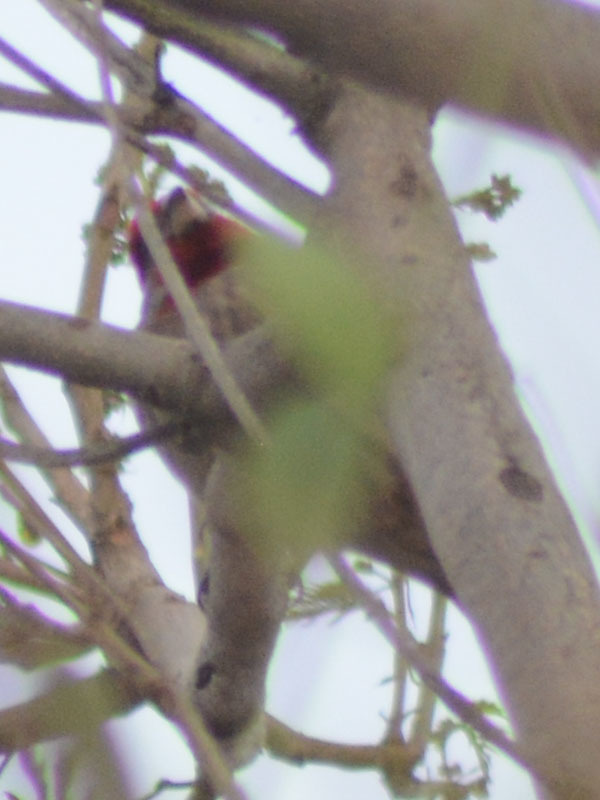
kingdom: Animalia
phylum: Chordata
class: Aves
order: Passeriformes
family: Fringillidae
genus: Haemorhous
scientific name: Haemorhous mexicanus
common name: House finch
